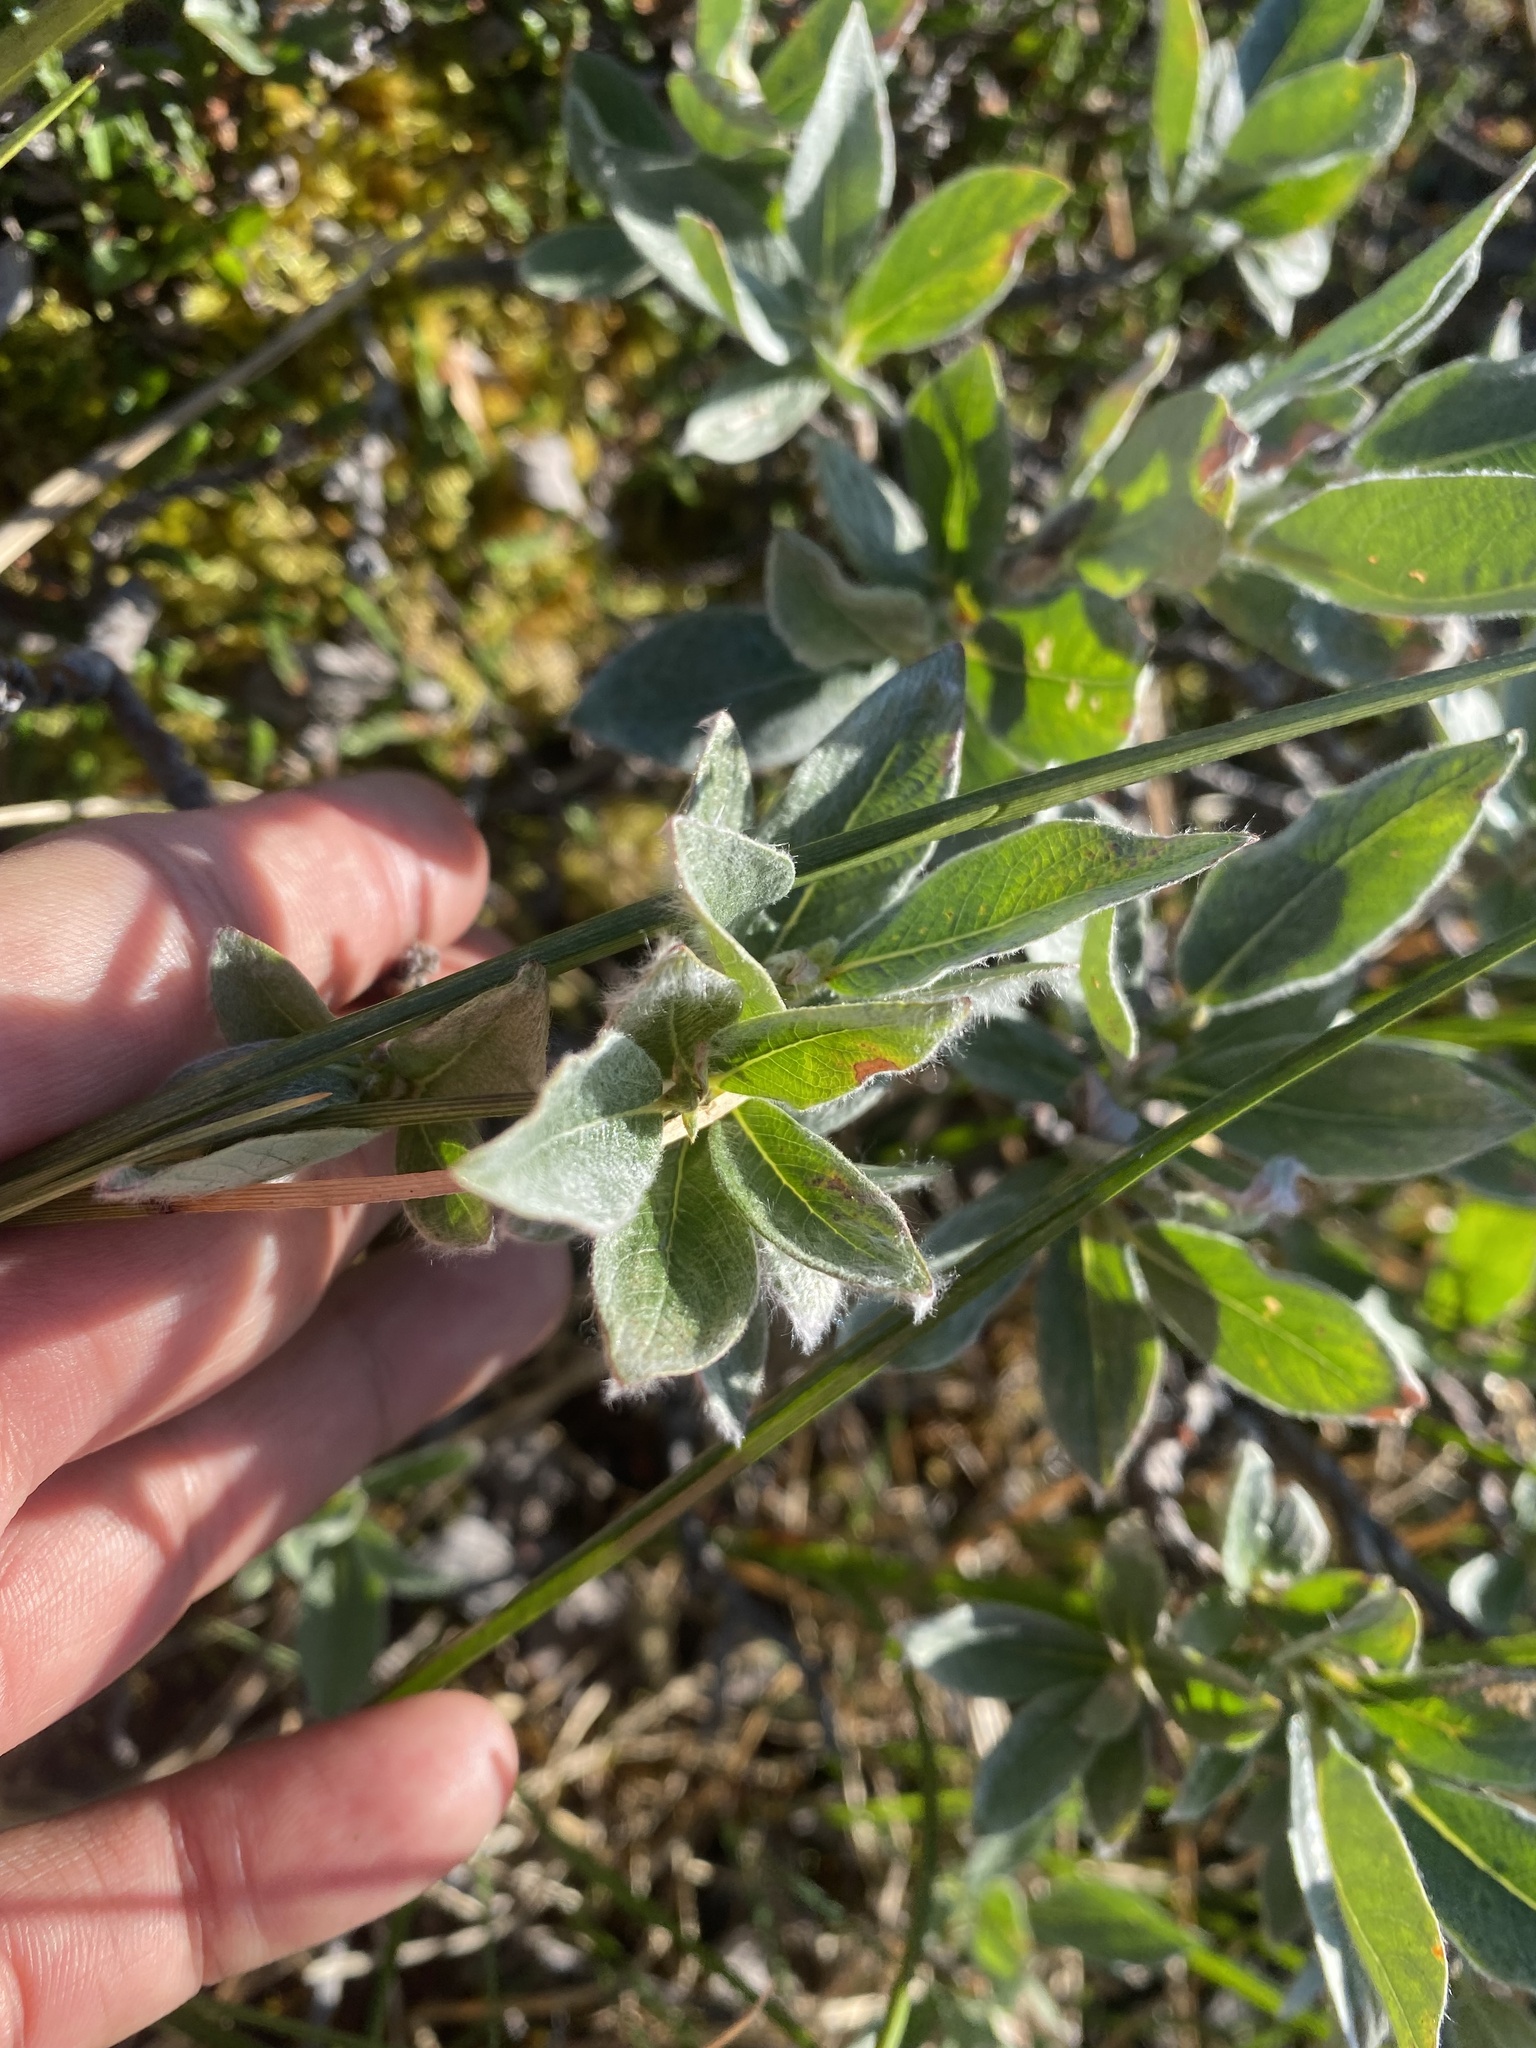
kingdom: Plantae
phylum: Tracheophyta
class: Magnoliopsida
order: Malpighiales
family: Salicaceae
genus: Salix
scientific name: Salix glauca
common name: Glaucous willow
